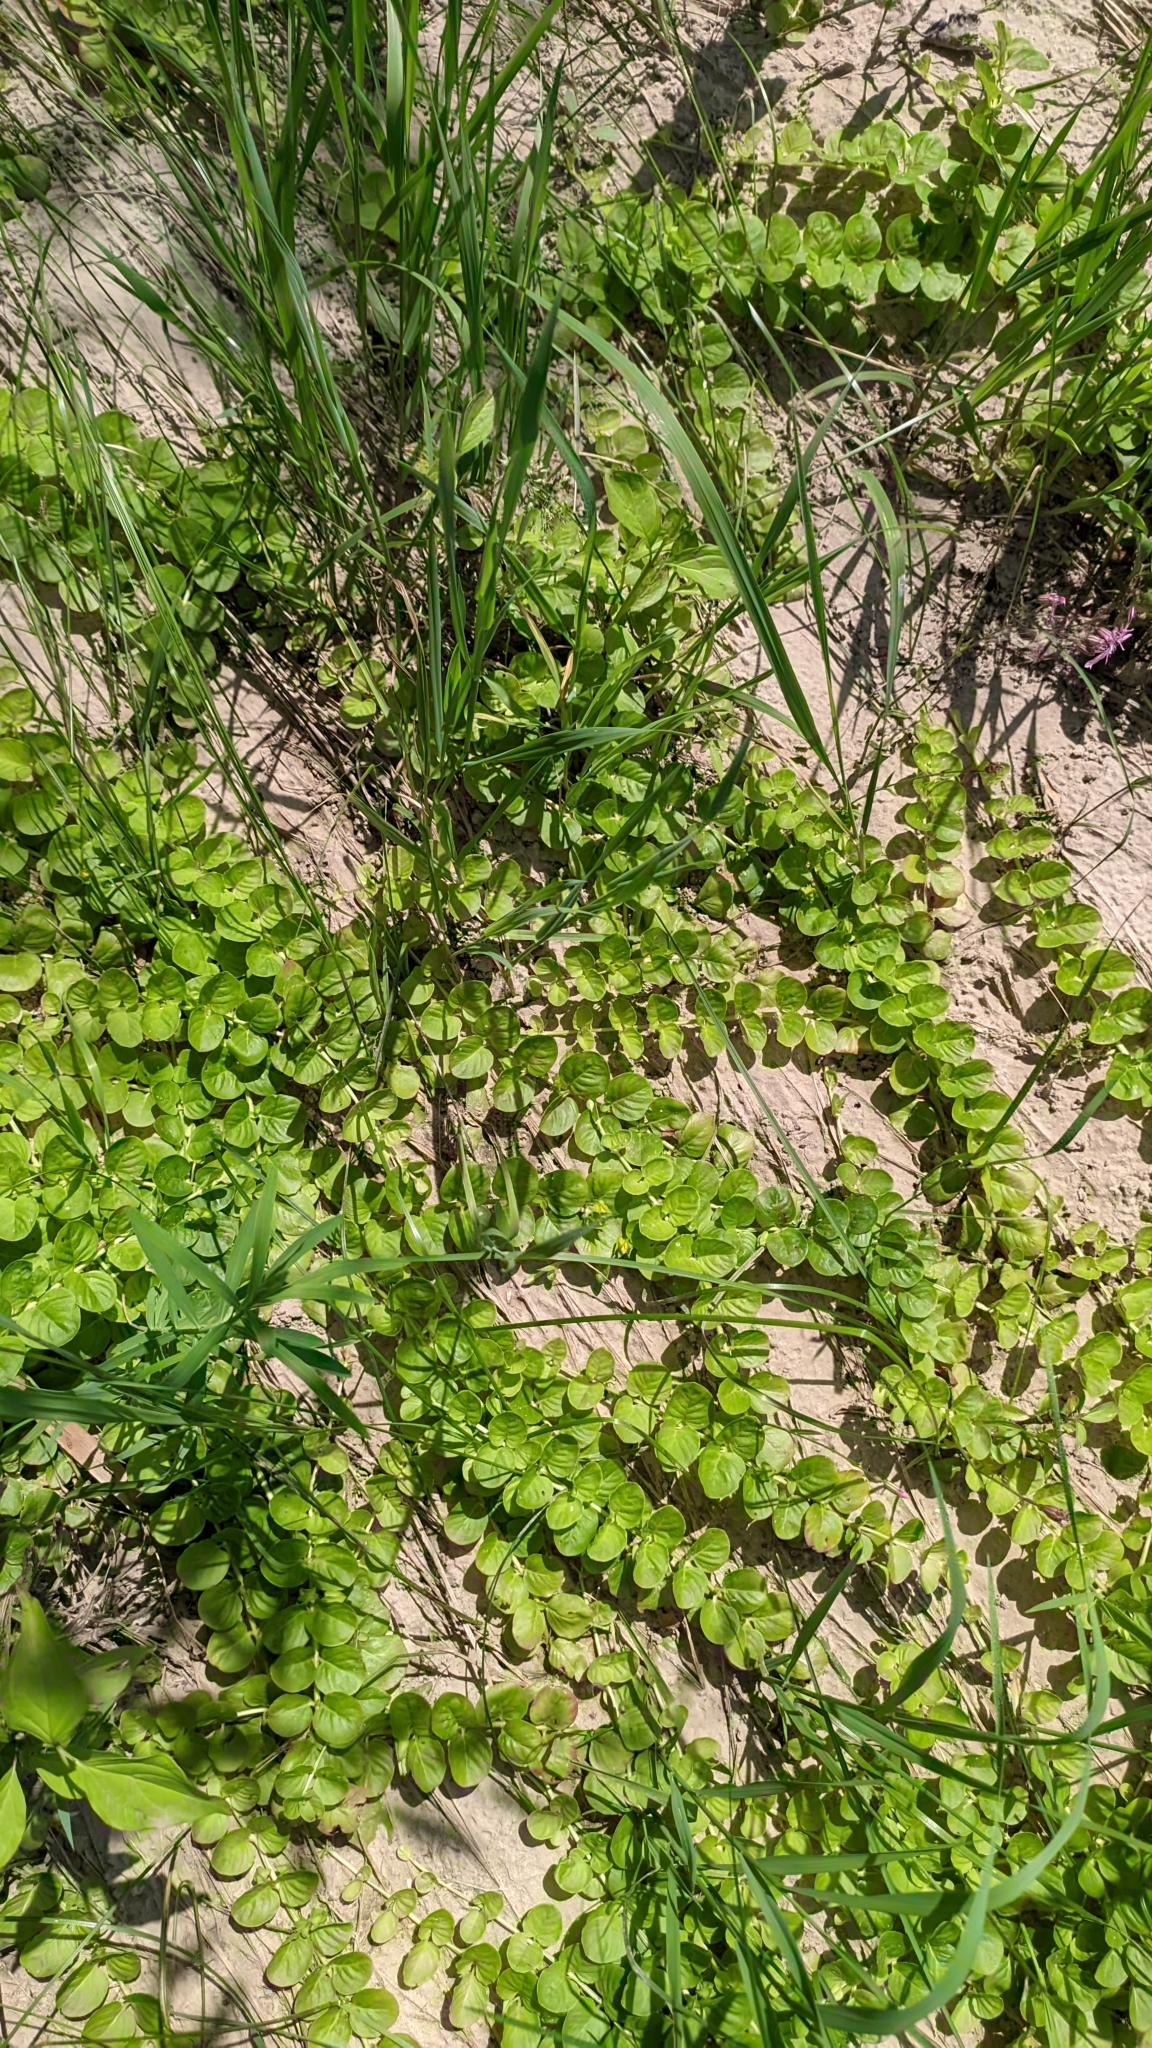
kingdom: Plantae
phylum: Tracheophyta
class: Magnoliopsida
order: Ericales
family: Primulaceae
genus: Lysimachia
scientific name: Lysimachia nummularia
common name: Moneywort
